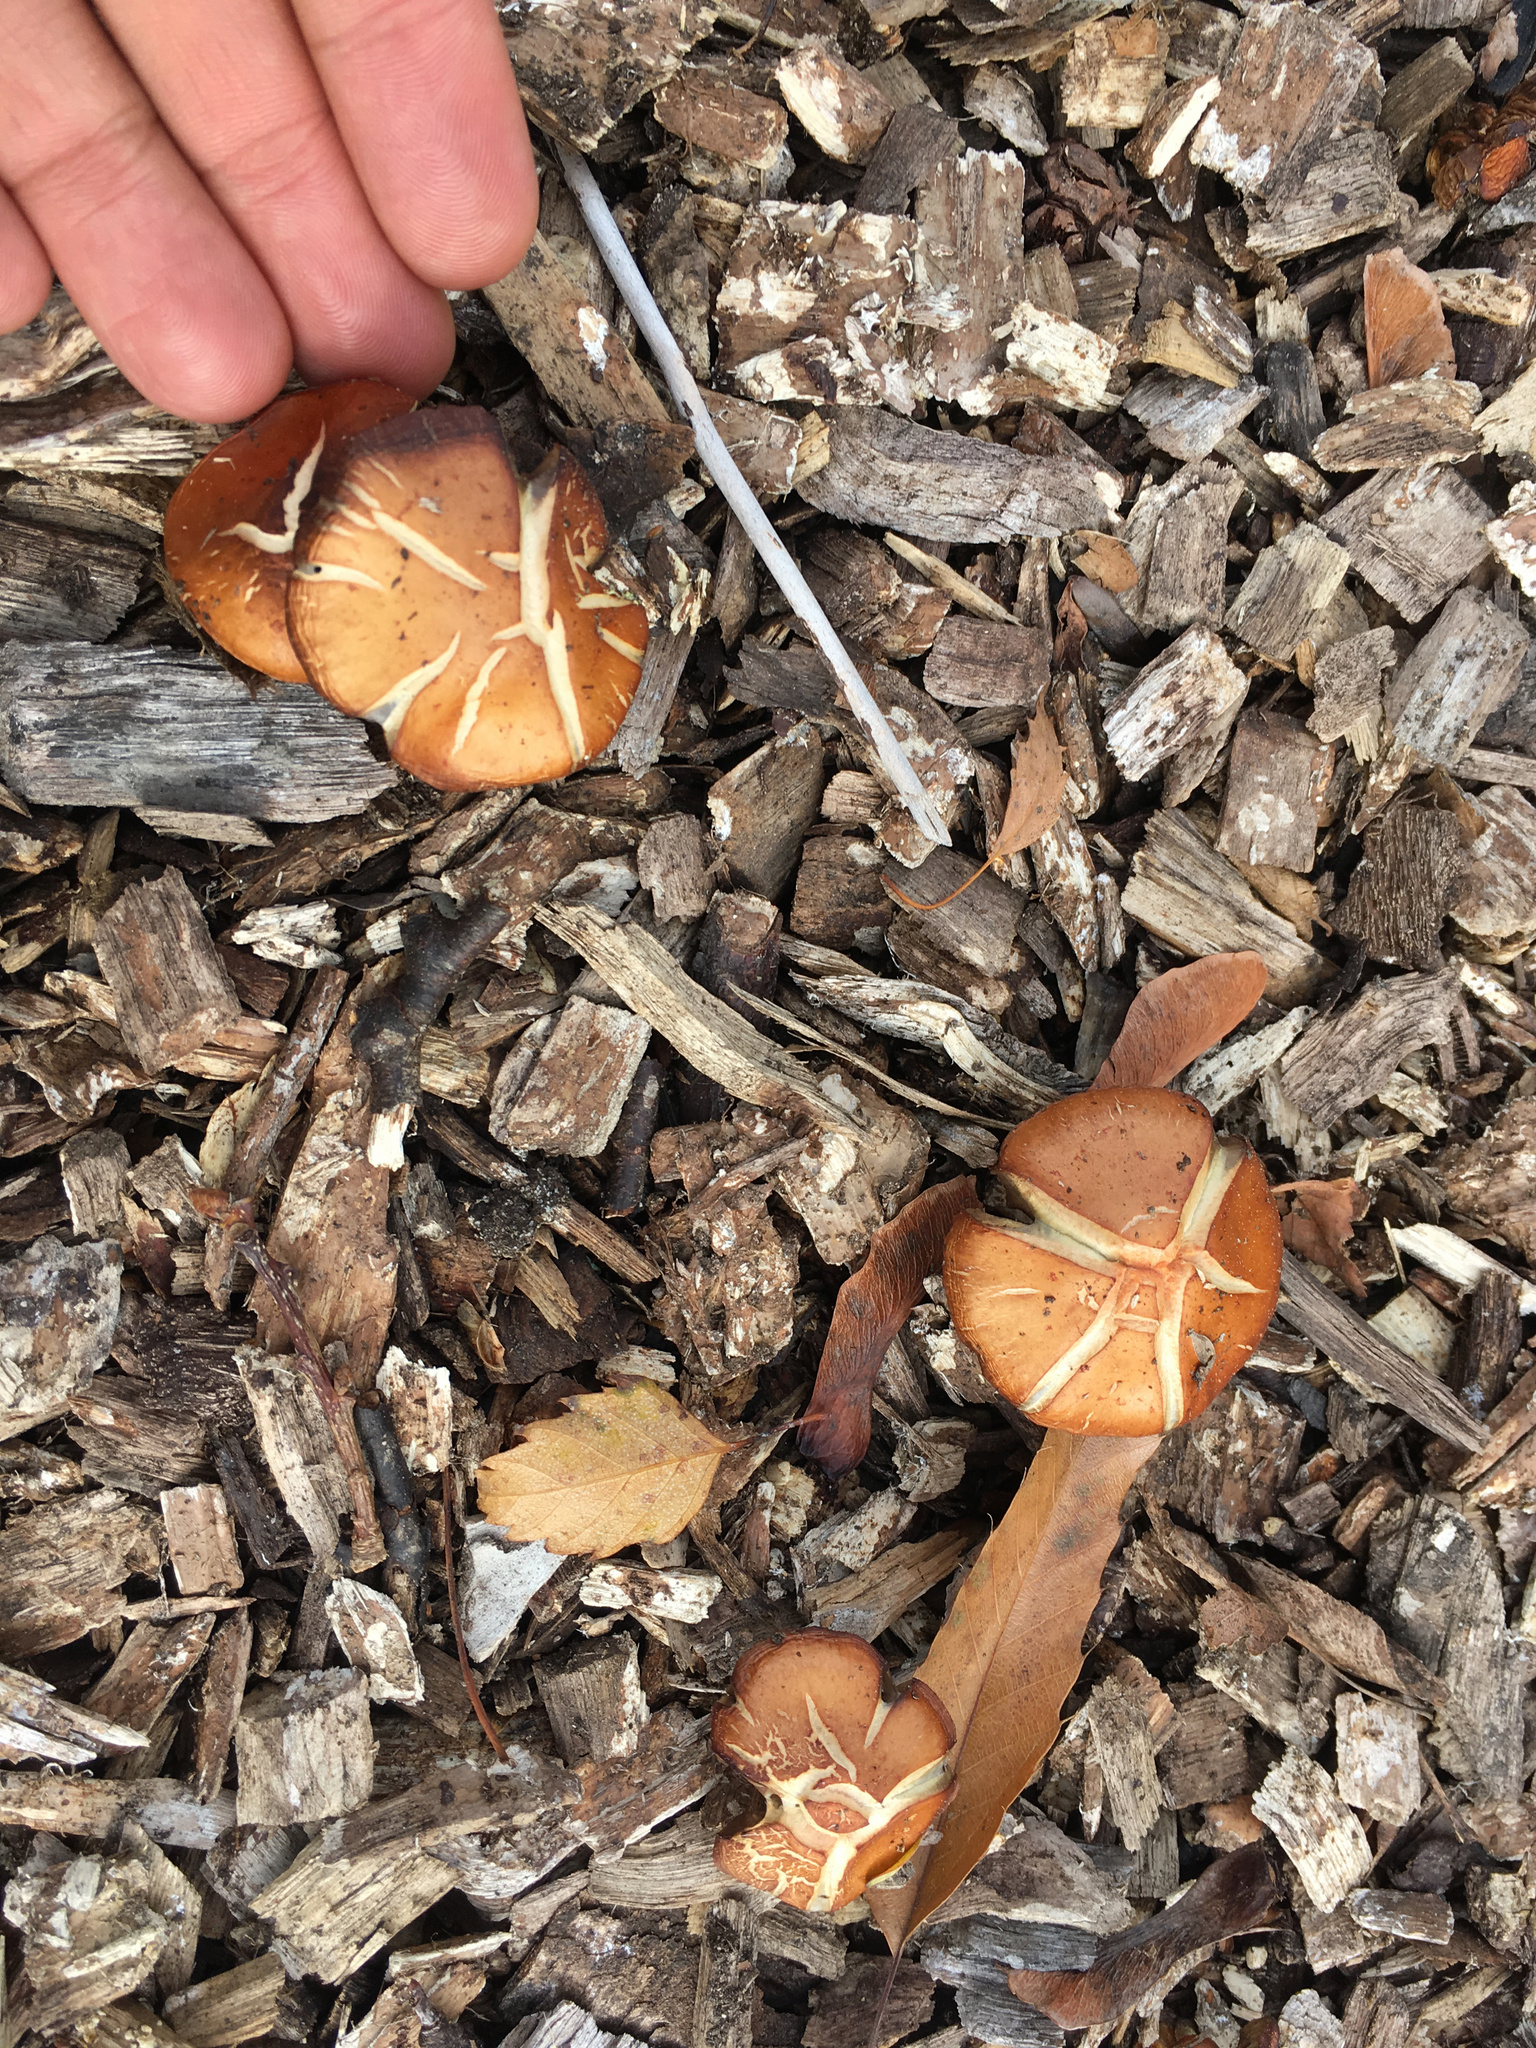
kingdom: Fungi
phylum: Basidiomycota
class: Agaricomycetes
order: Agaricales
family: Strophariaceae
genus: Leratiomyces
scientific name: Leratiomyces ceres
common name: Redlead roundhead
